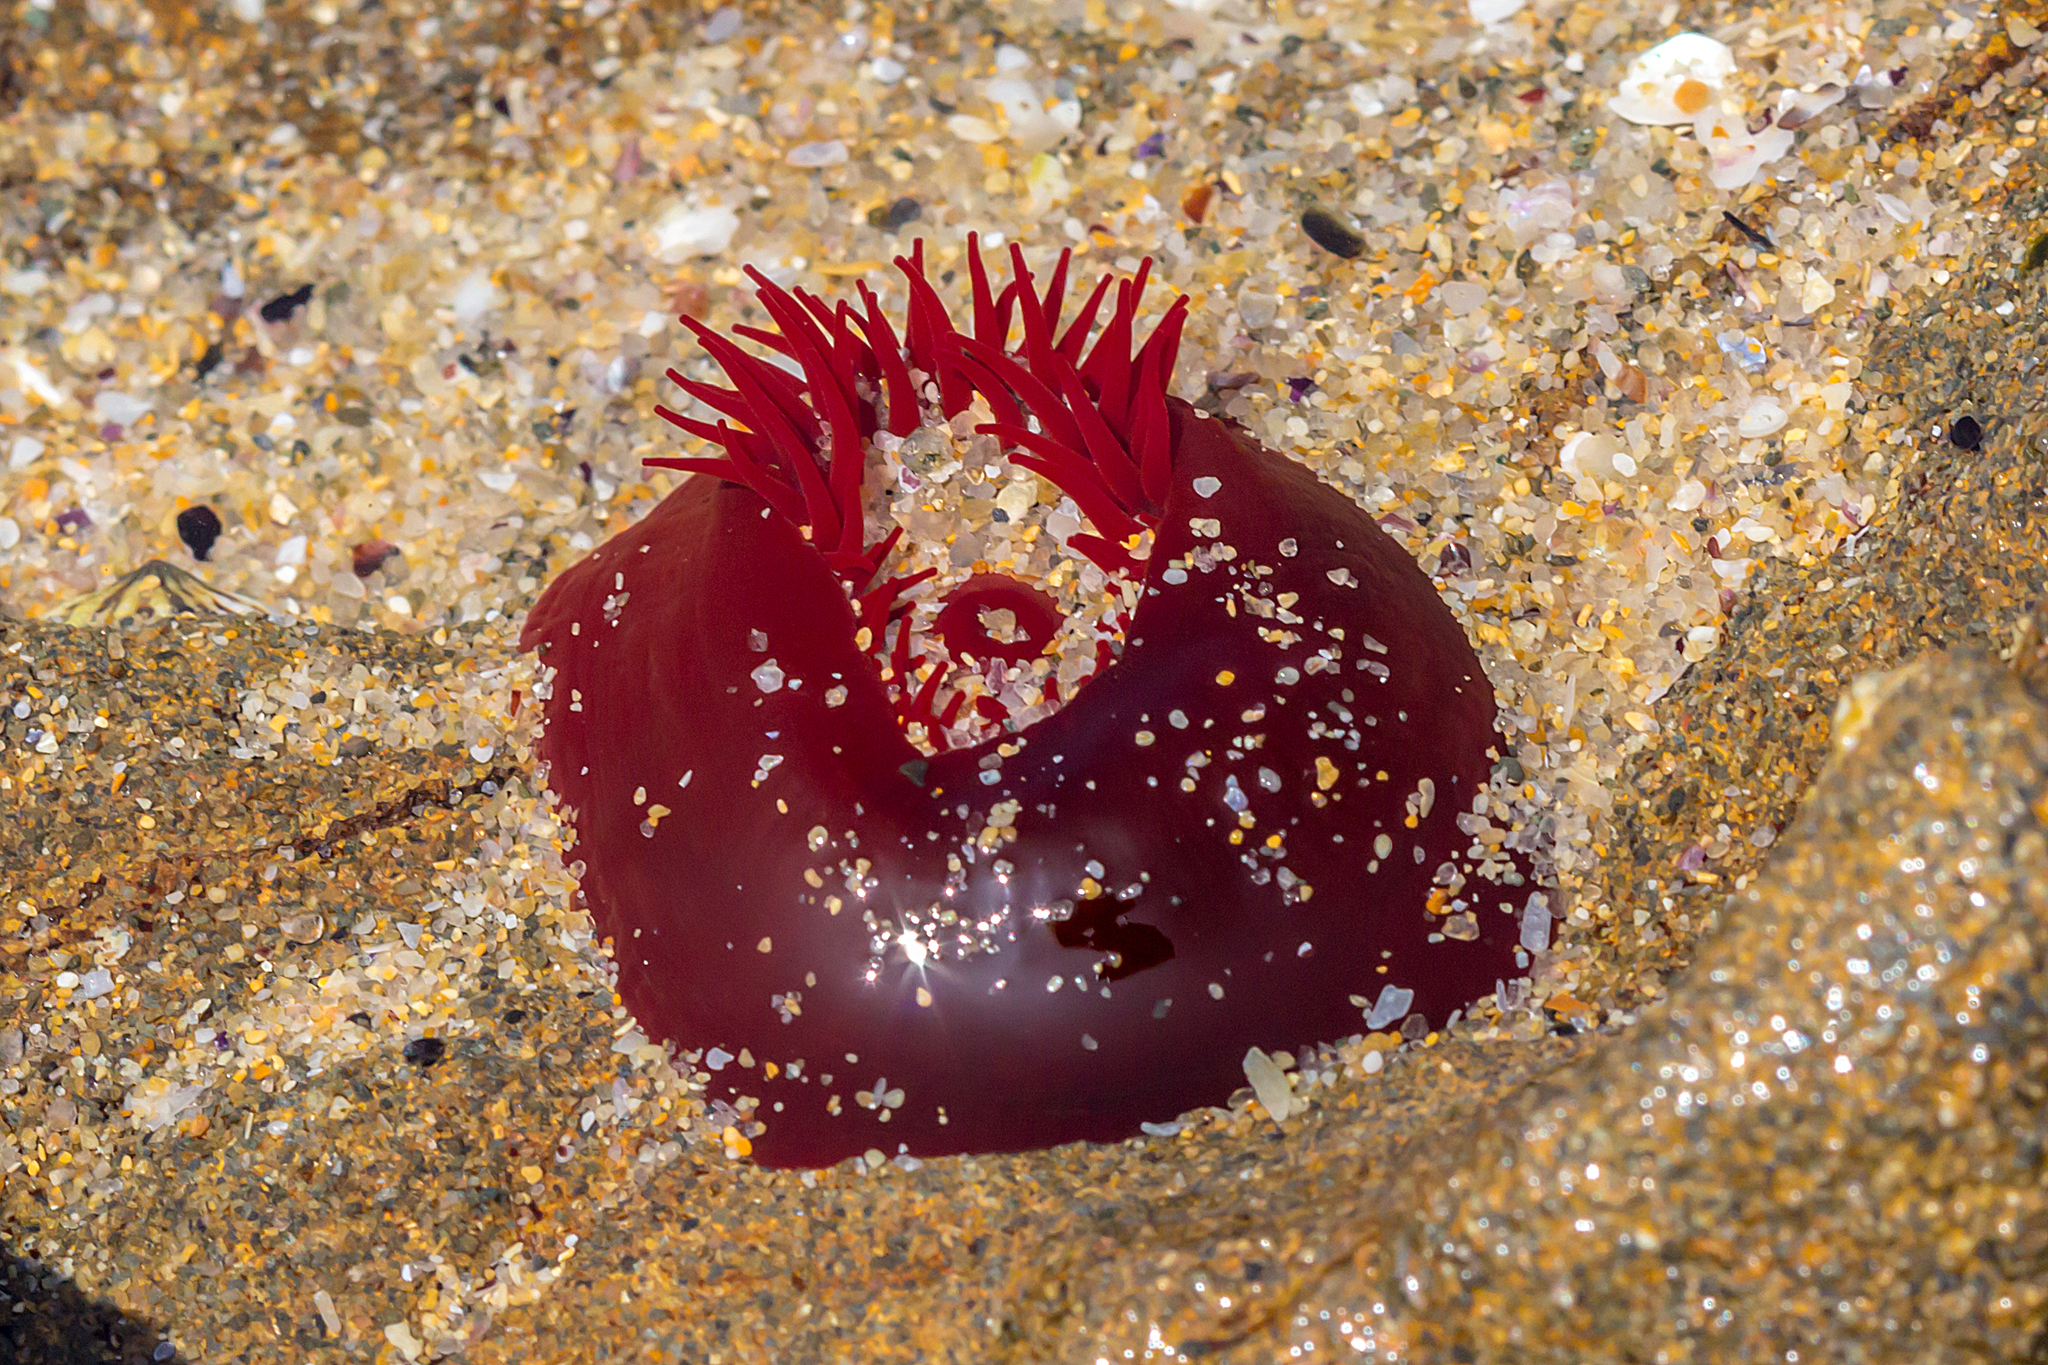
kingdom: Animalia
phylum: Cnidaria
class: Anthozoa
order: Actiniaria
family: Actiniidae
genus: Actinia
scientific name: Actinia tenebrosa
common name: Waratah anemone
